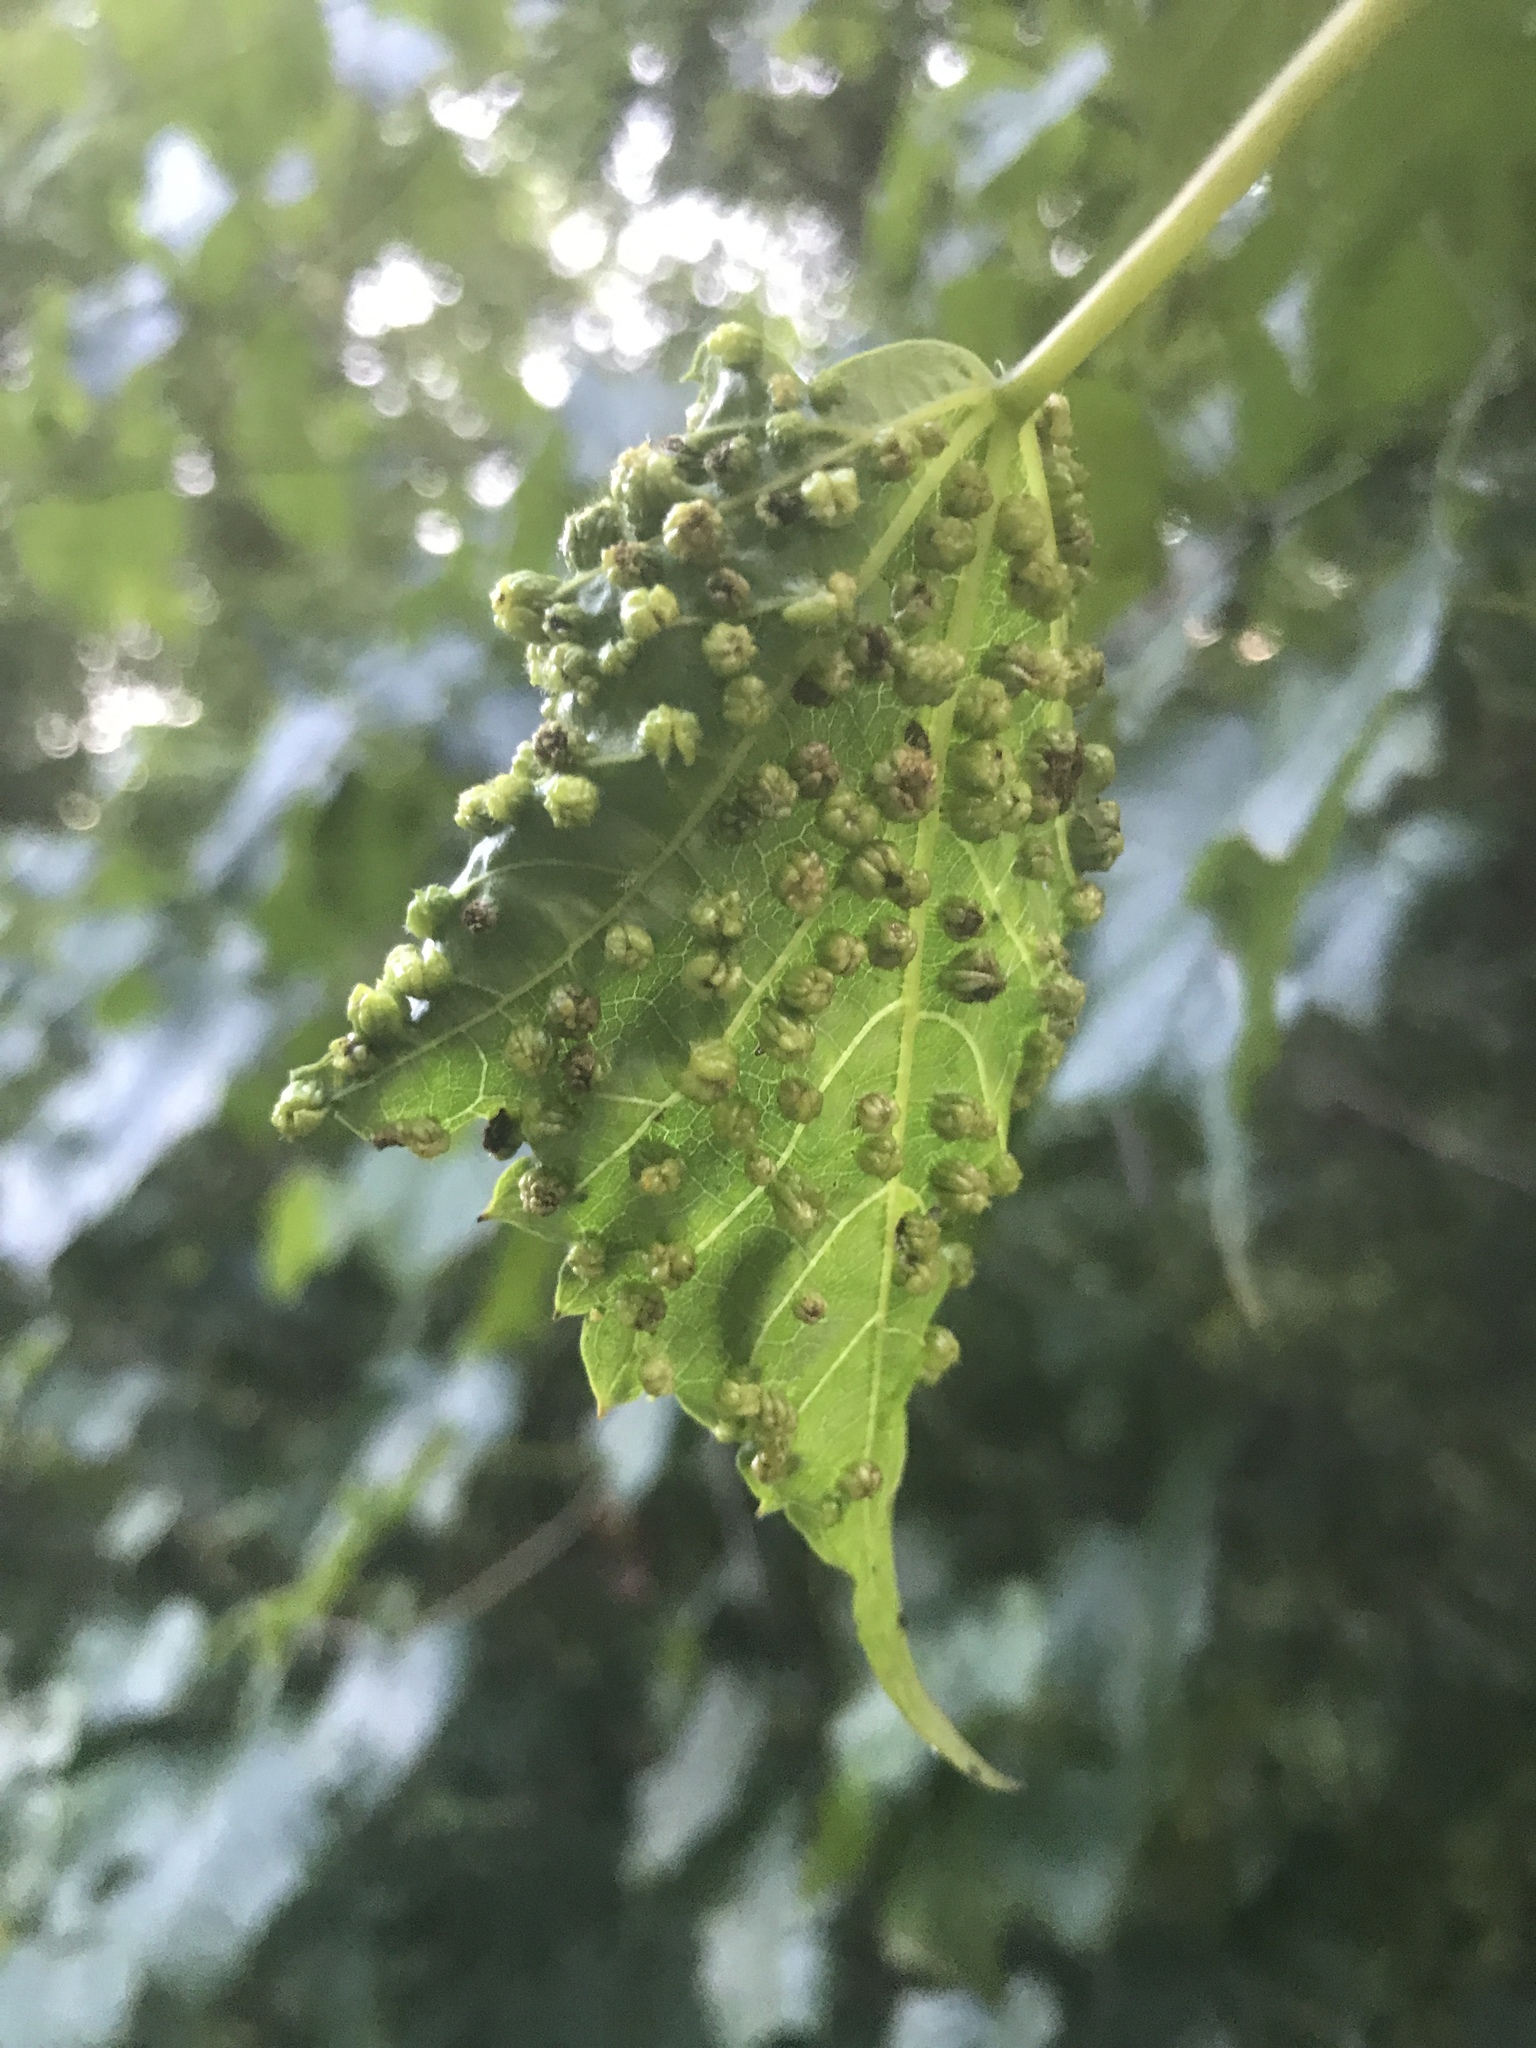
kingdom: Animalia
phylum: Arthropoda
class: Insecta
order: Hemiptera
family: Phylloxeridae
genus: Daktulosphaira
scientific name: Daktulosphaira vitifoliae
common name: Grape phylloxera
